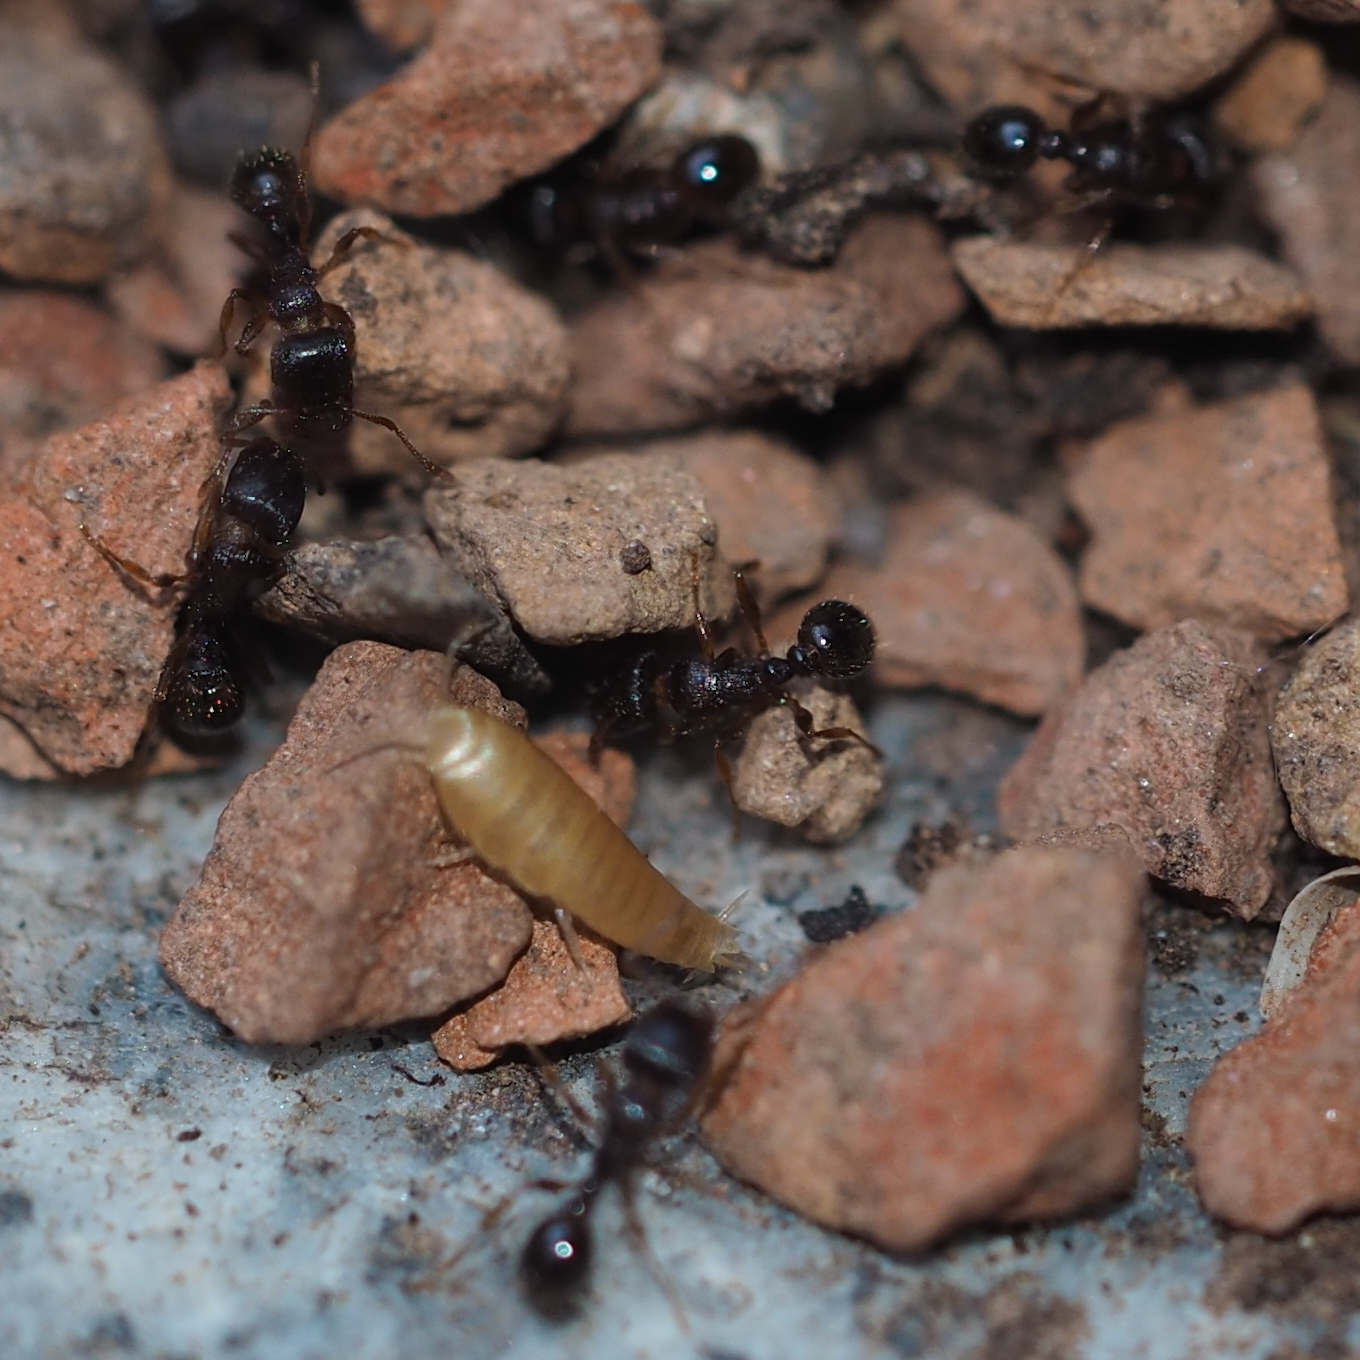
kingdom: Animalia
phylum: Arthropoda
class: Insecta
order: Zygentoma
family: Nicoletiidae
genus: Atelura
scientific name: Atelura formicaria
